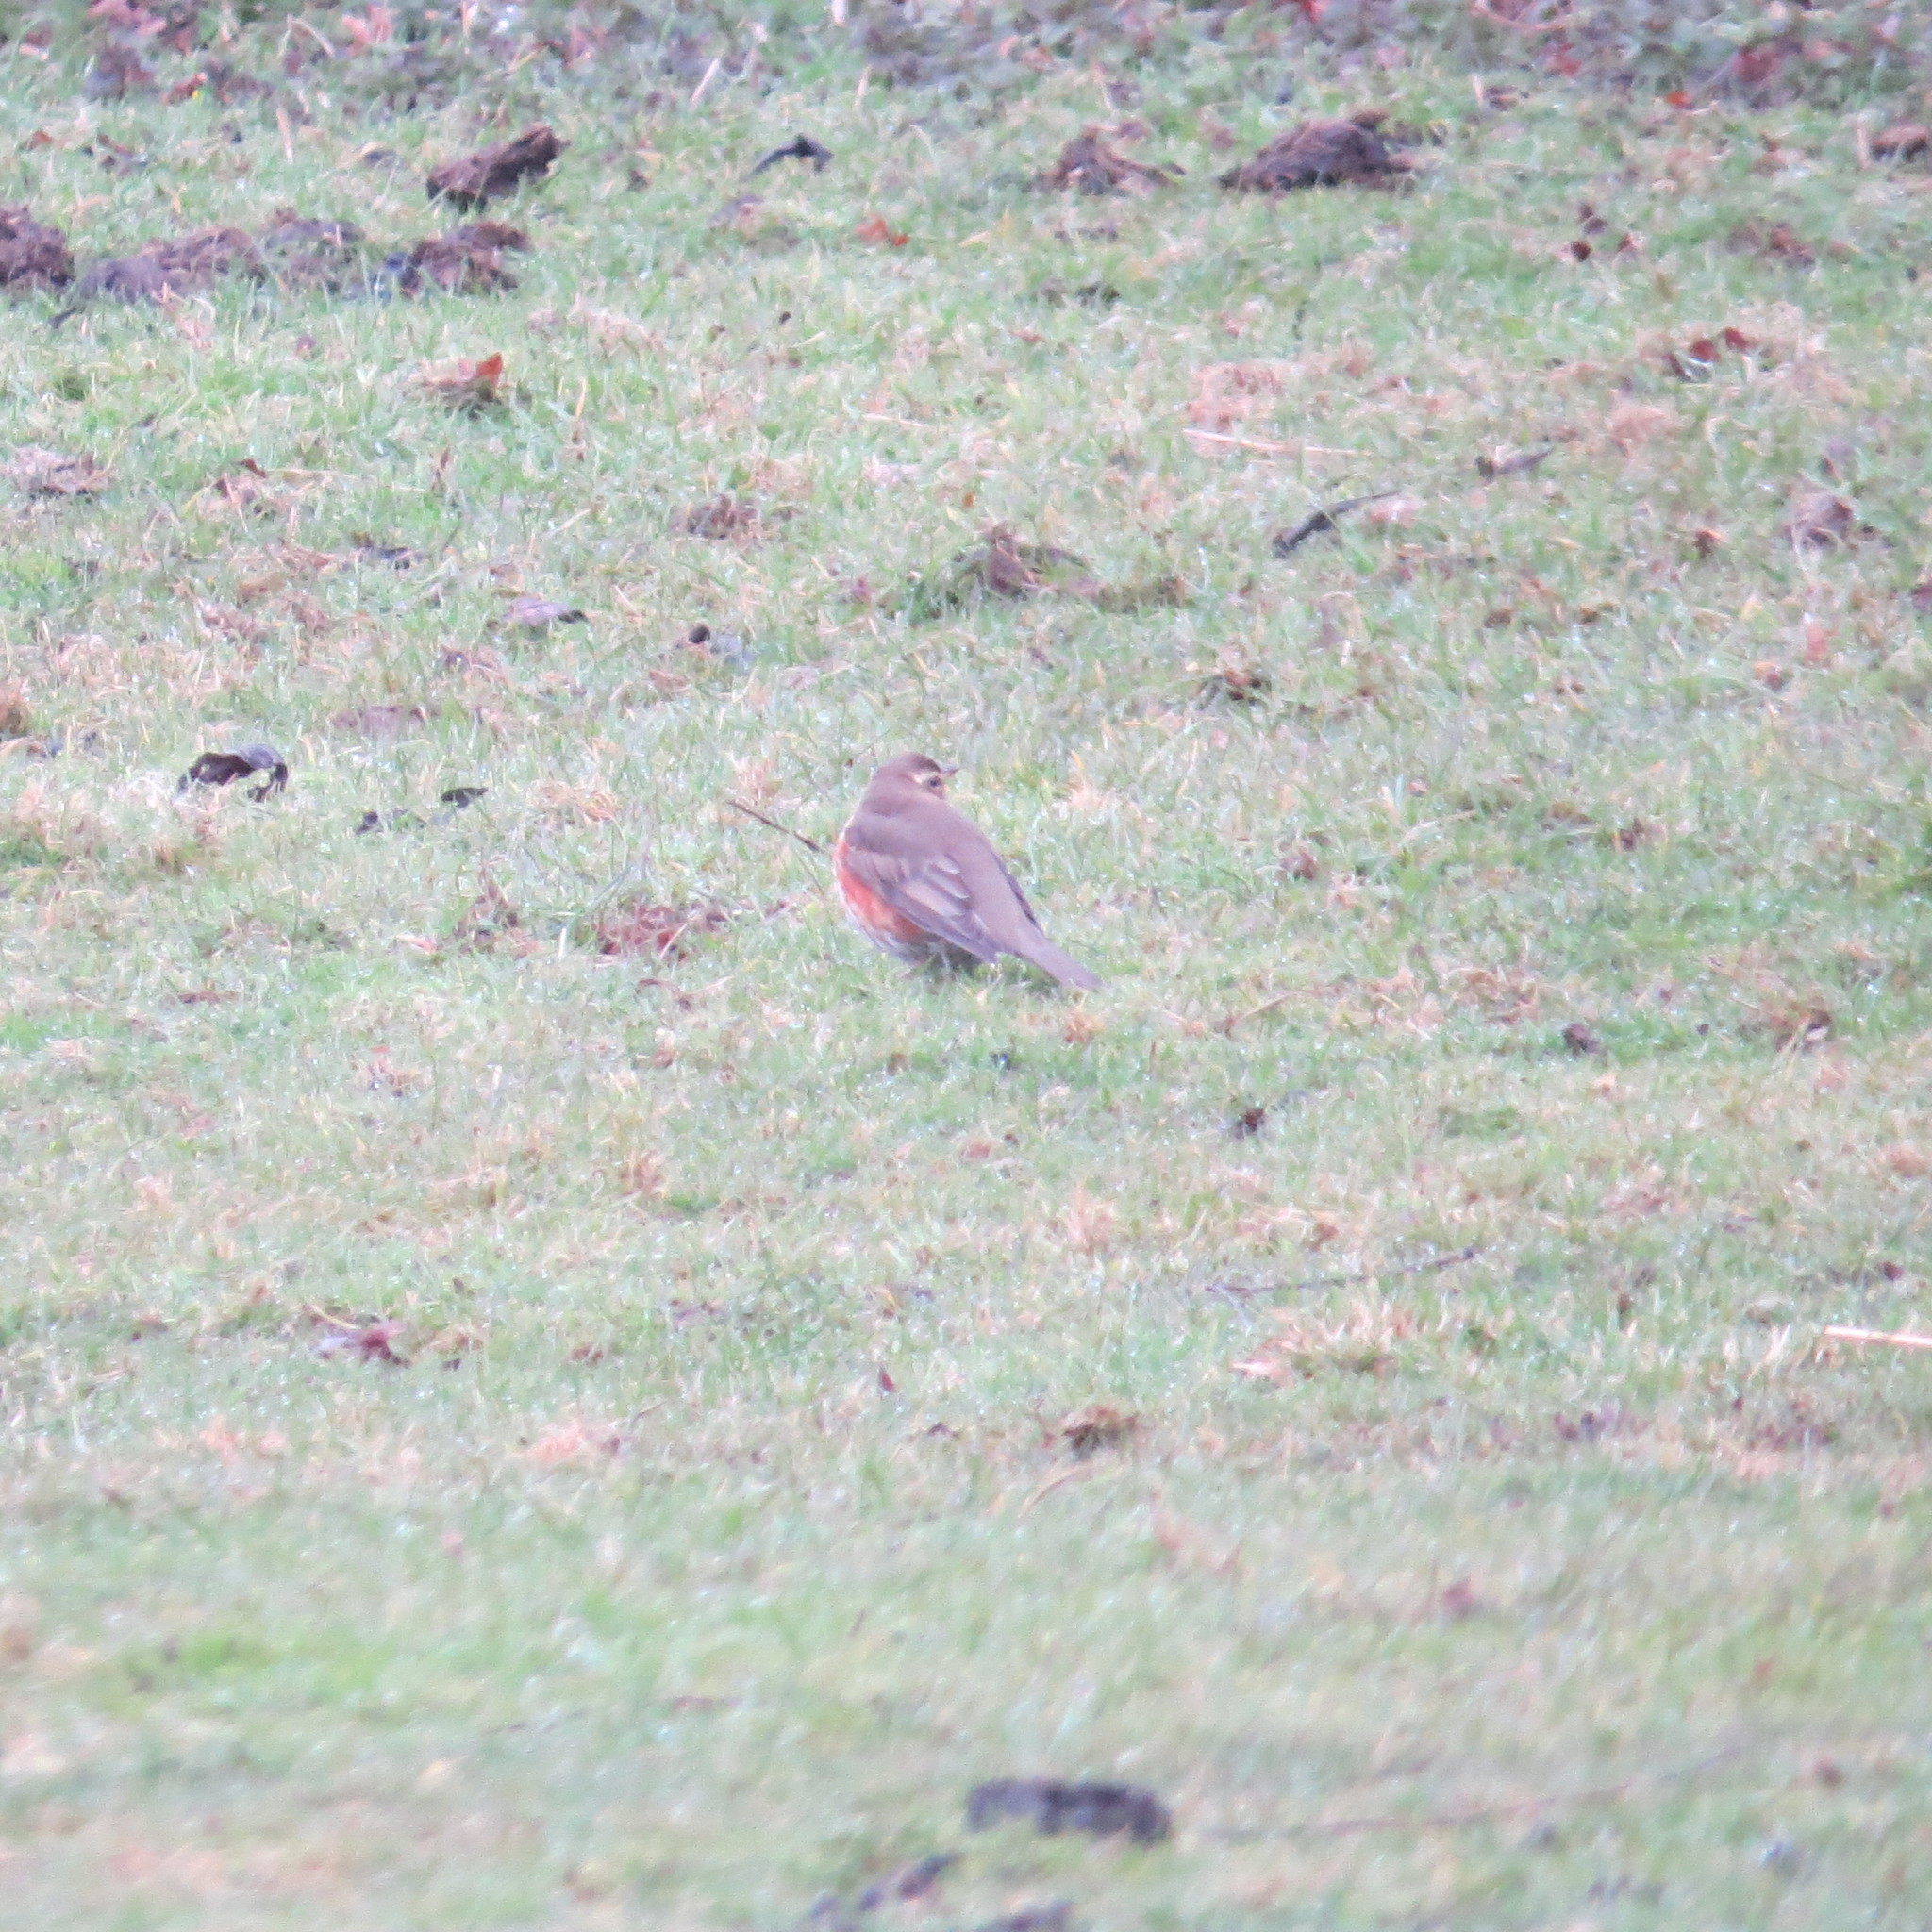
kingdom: Animalia
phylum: Chordata
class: Aves
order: Passeriformes
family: Turdidae
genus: Turdus
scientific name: Turdus iliacus
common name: Redwing
